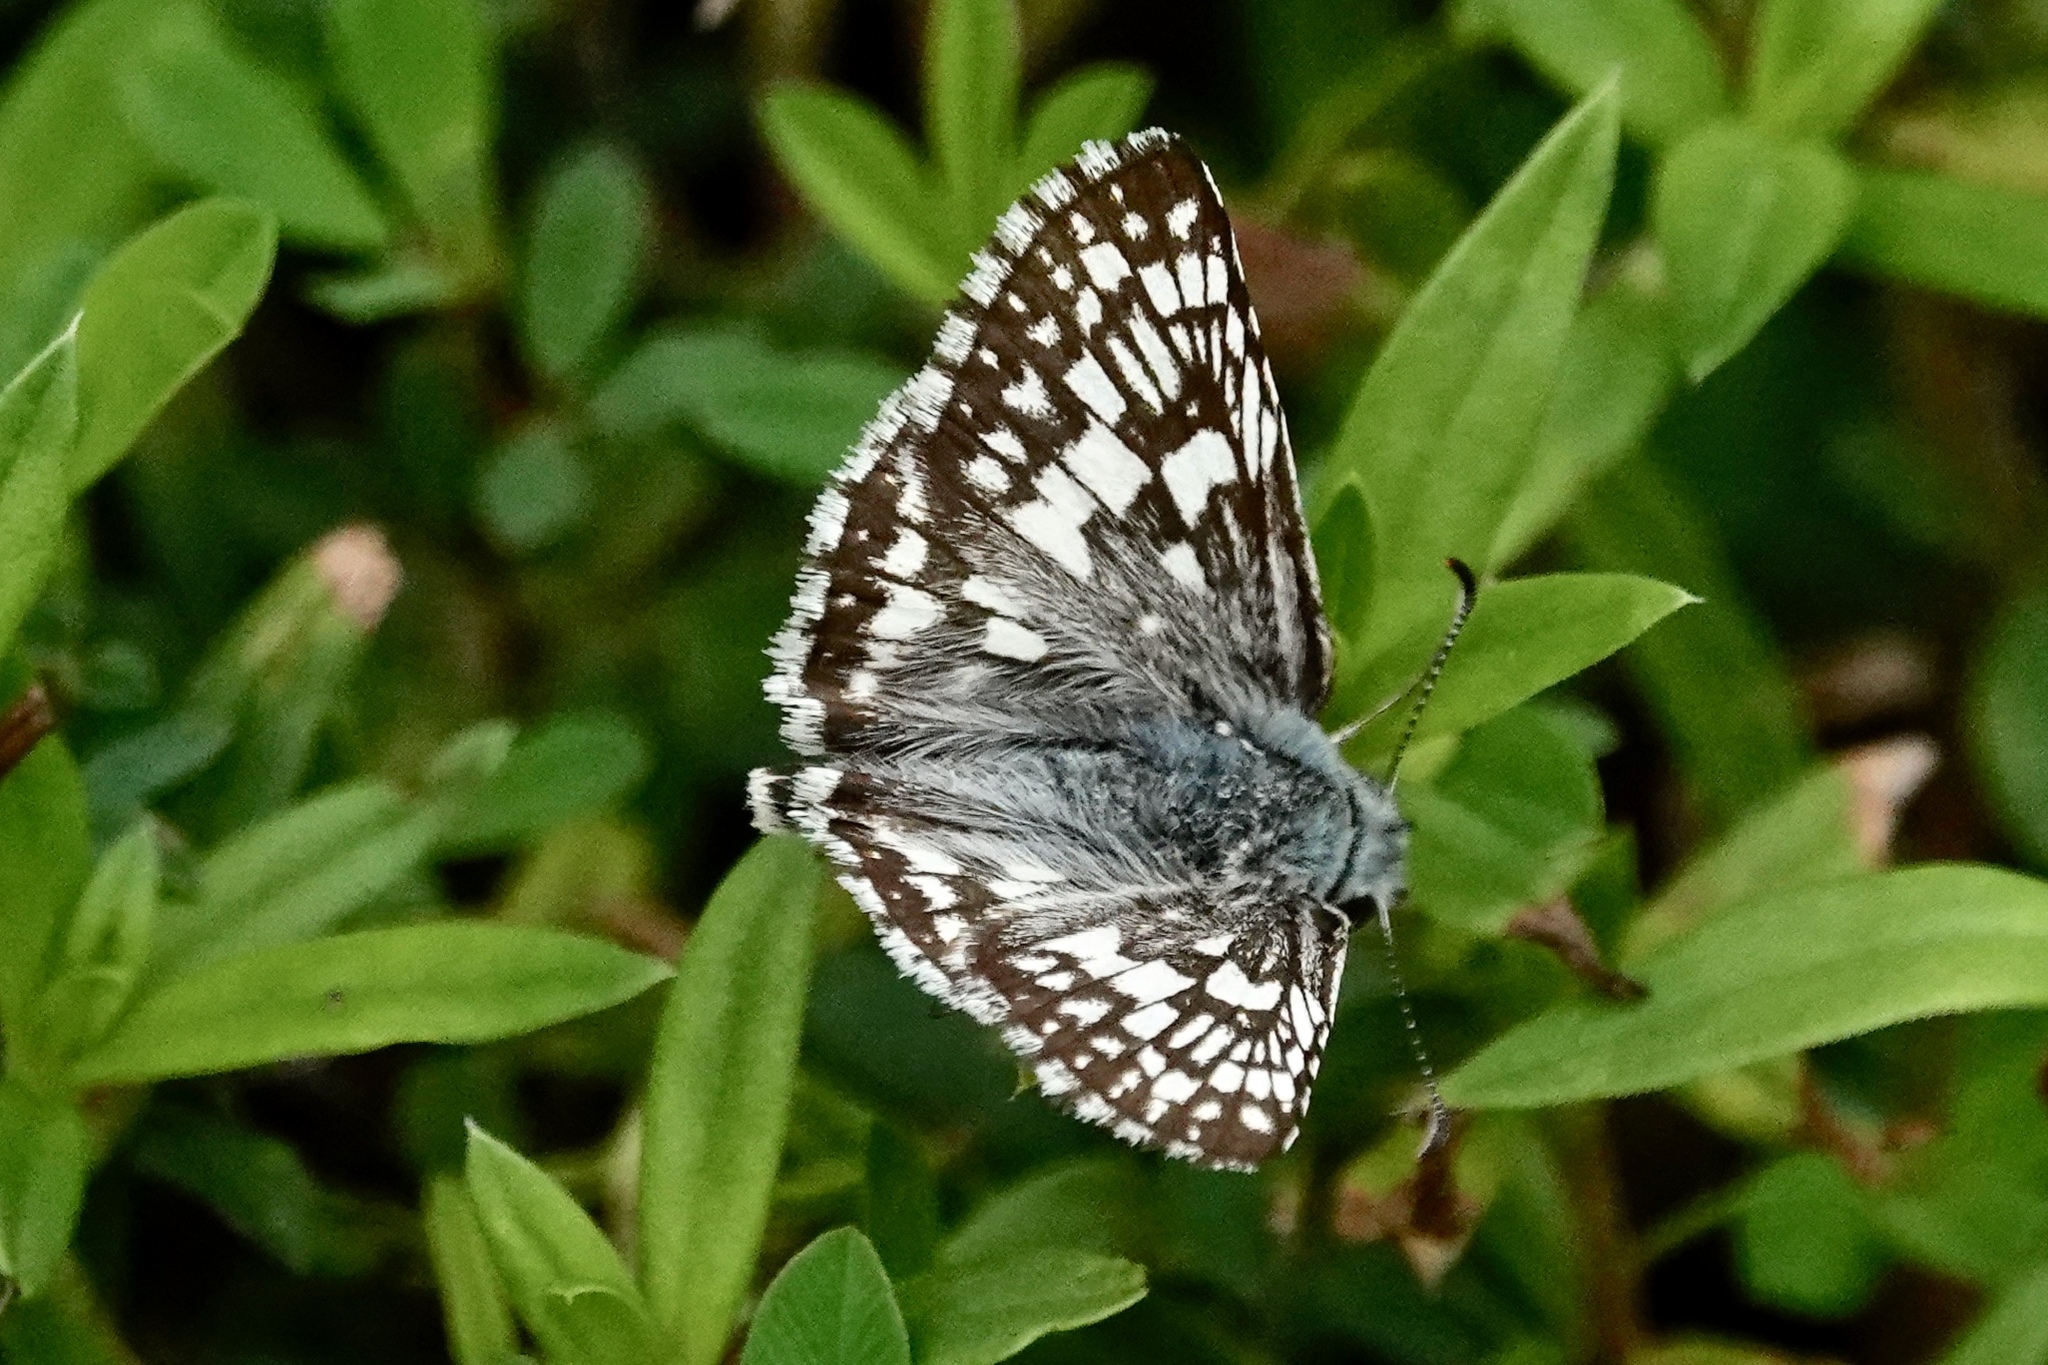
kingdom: Animalia
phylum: Arthropoda
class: Insecta
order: Lepidoptera
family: Hesperiidae
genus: Burnsius
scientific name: Burnsius communis
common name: Common checkered-skipper
